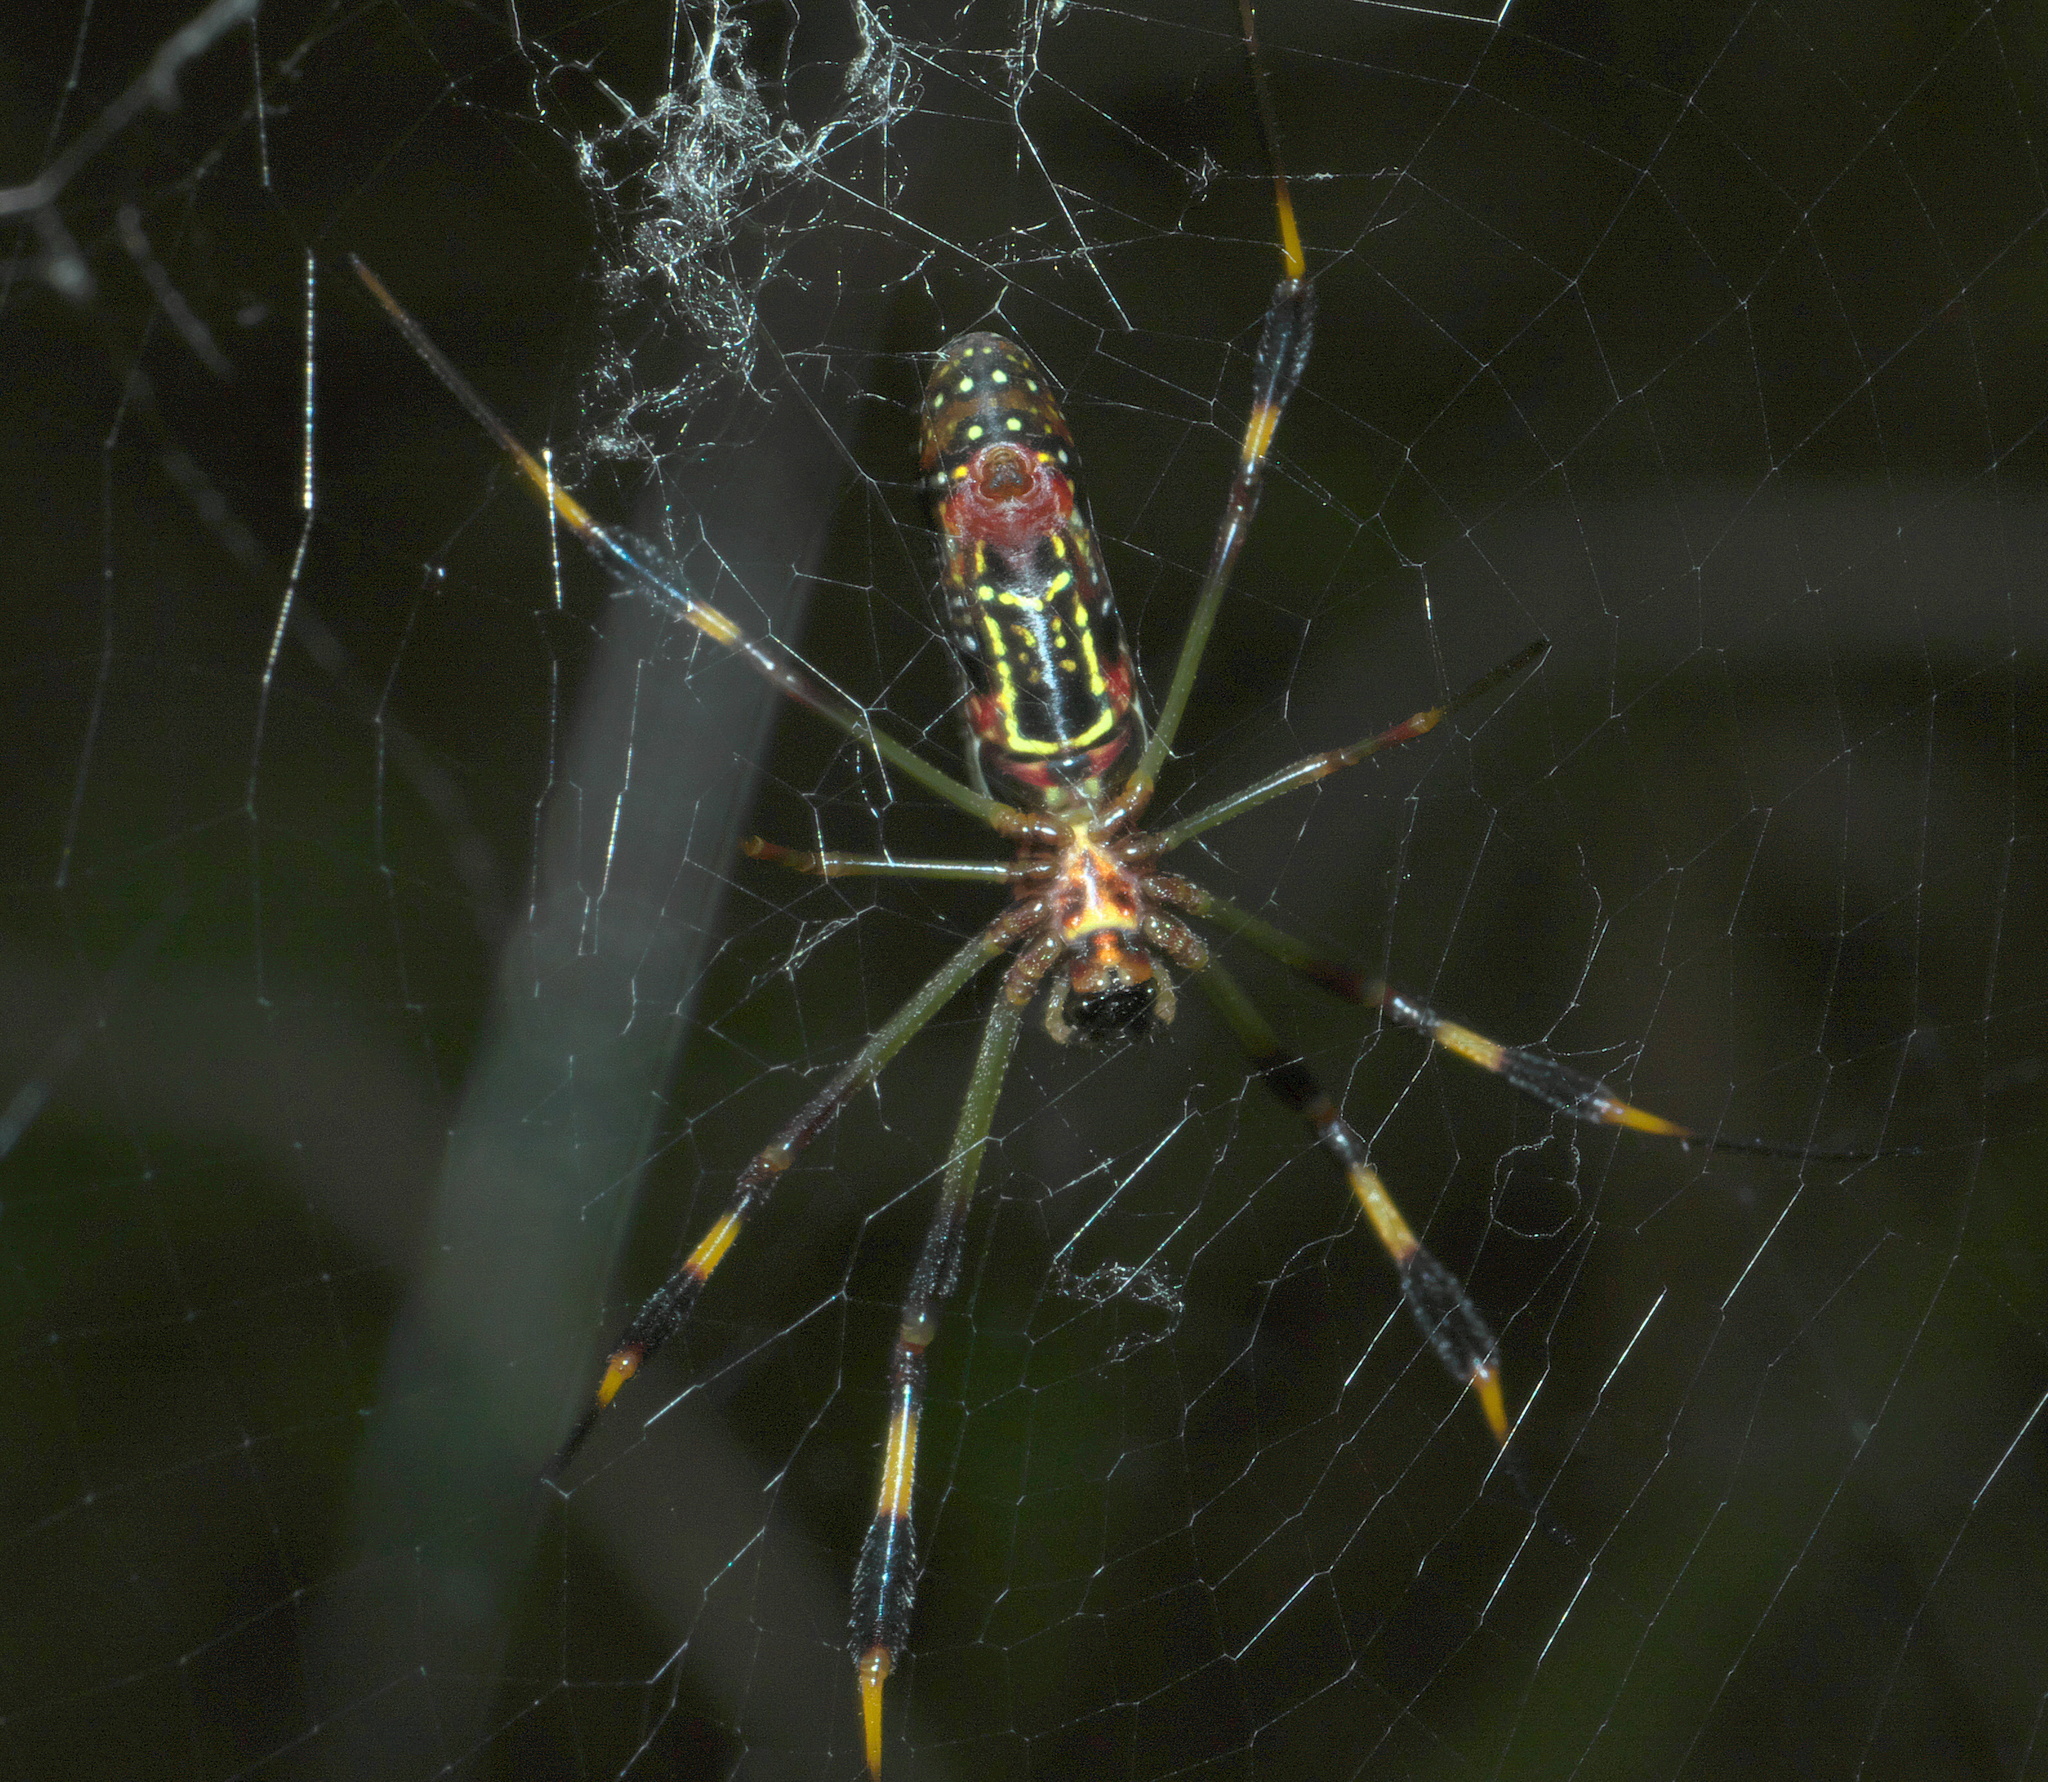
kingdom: Animalia
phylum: Arthropoda
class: Arachnida
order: Araneae
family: Araneidae
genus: Trichonephila
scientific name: Trichonephila clavipes
